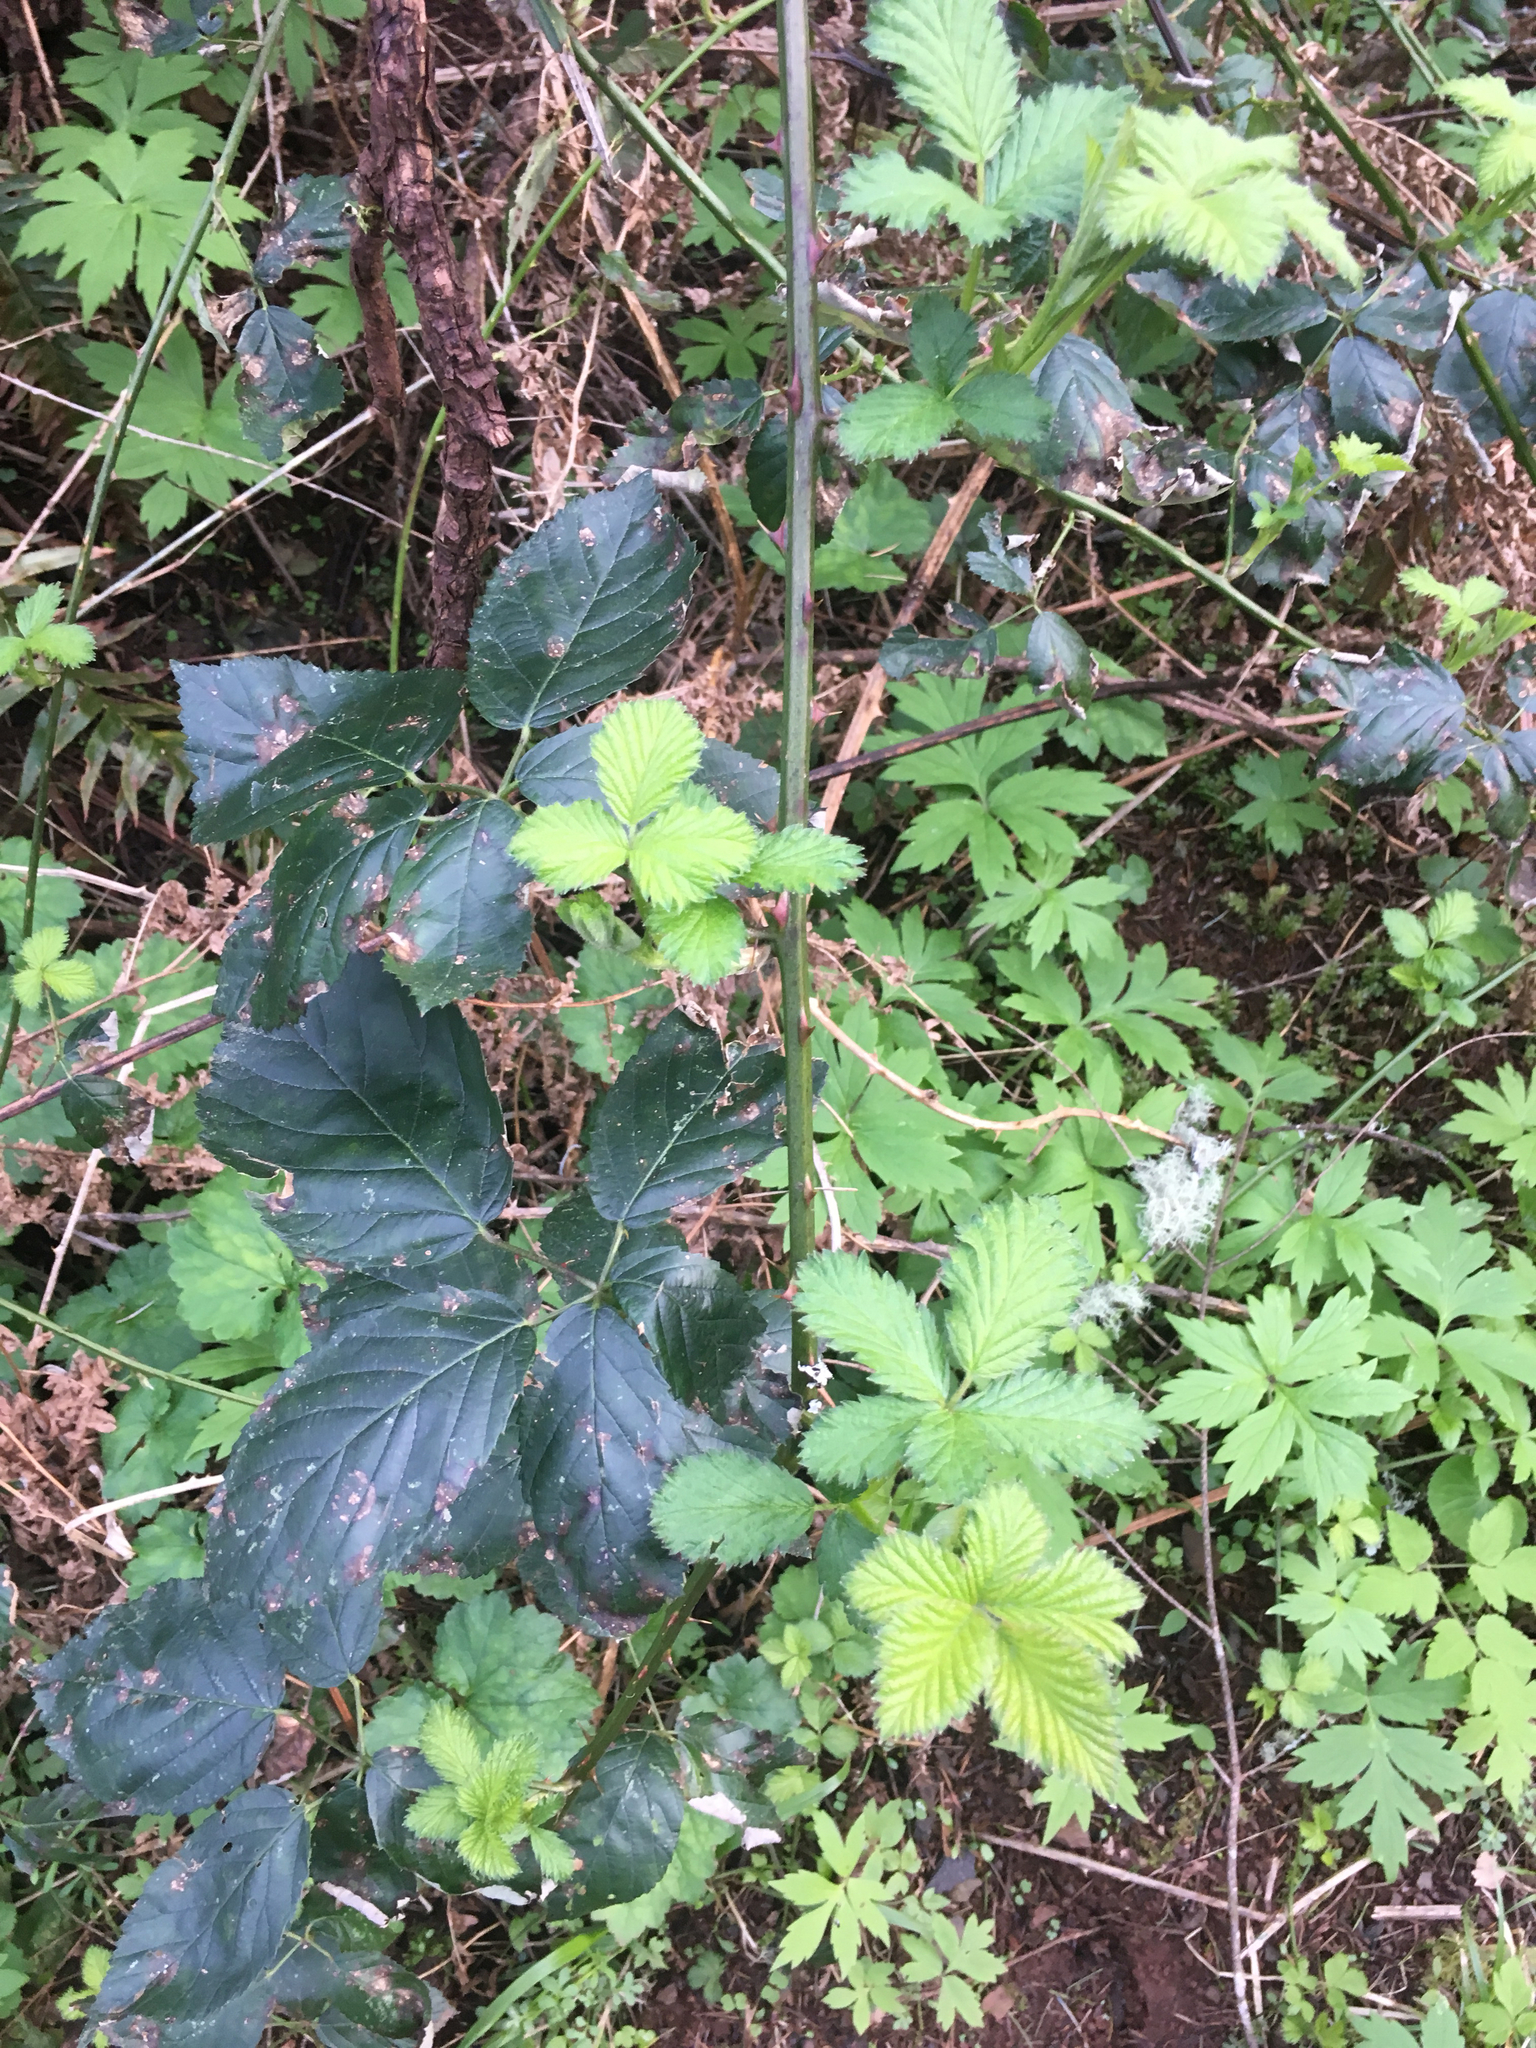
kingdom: Plantae
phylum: Tracheophyta
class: Magnoliopsida
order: Rosales
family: Rosaceae
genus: Rubus
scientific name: Rubus armeniacus
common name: Himalayan blackberry
